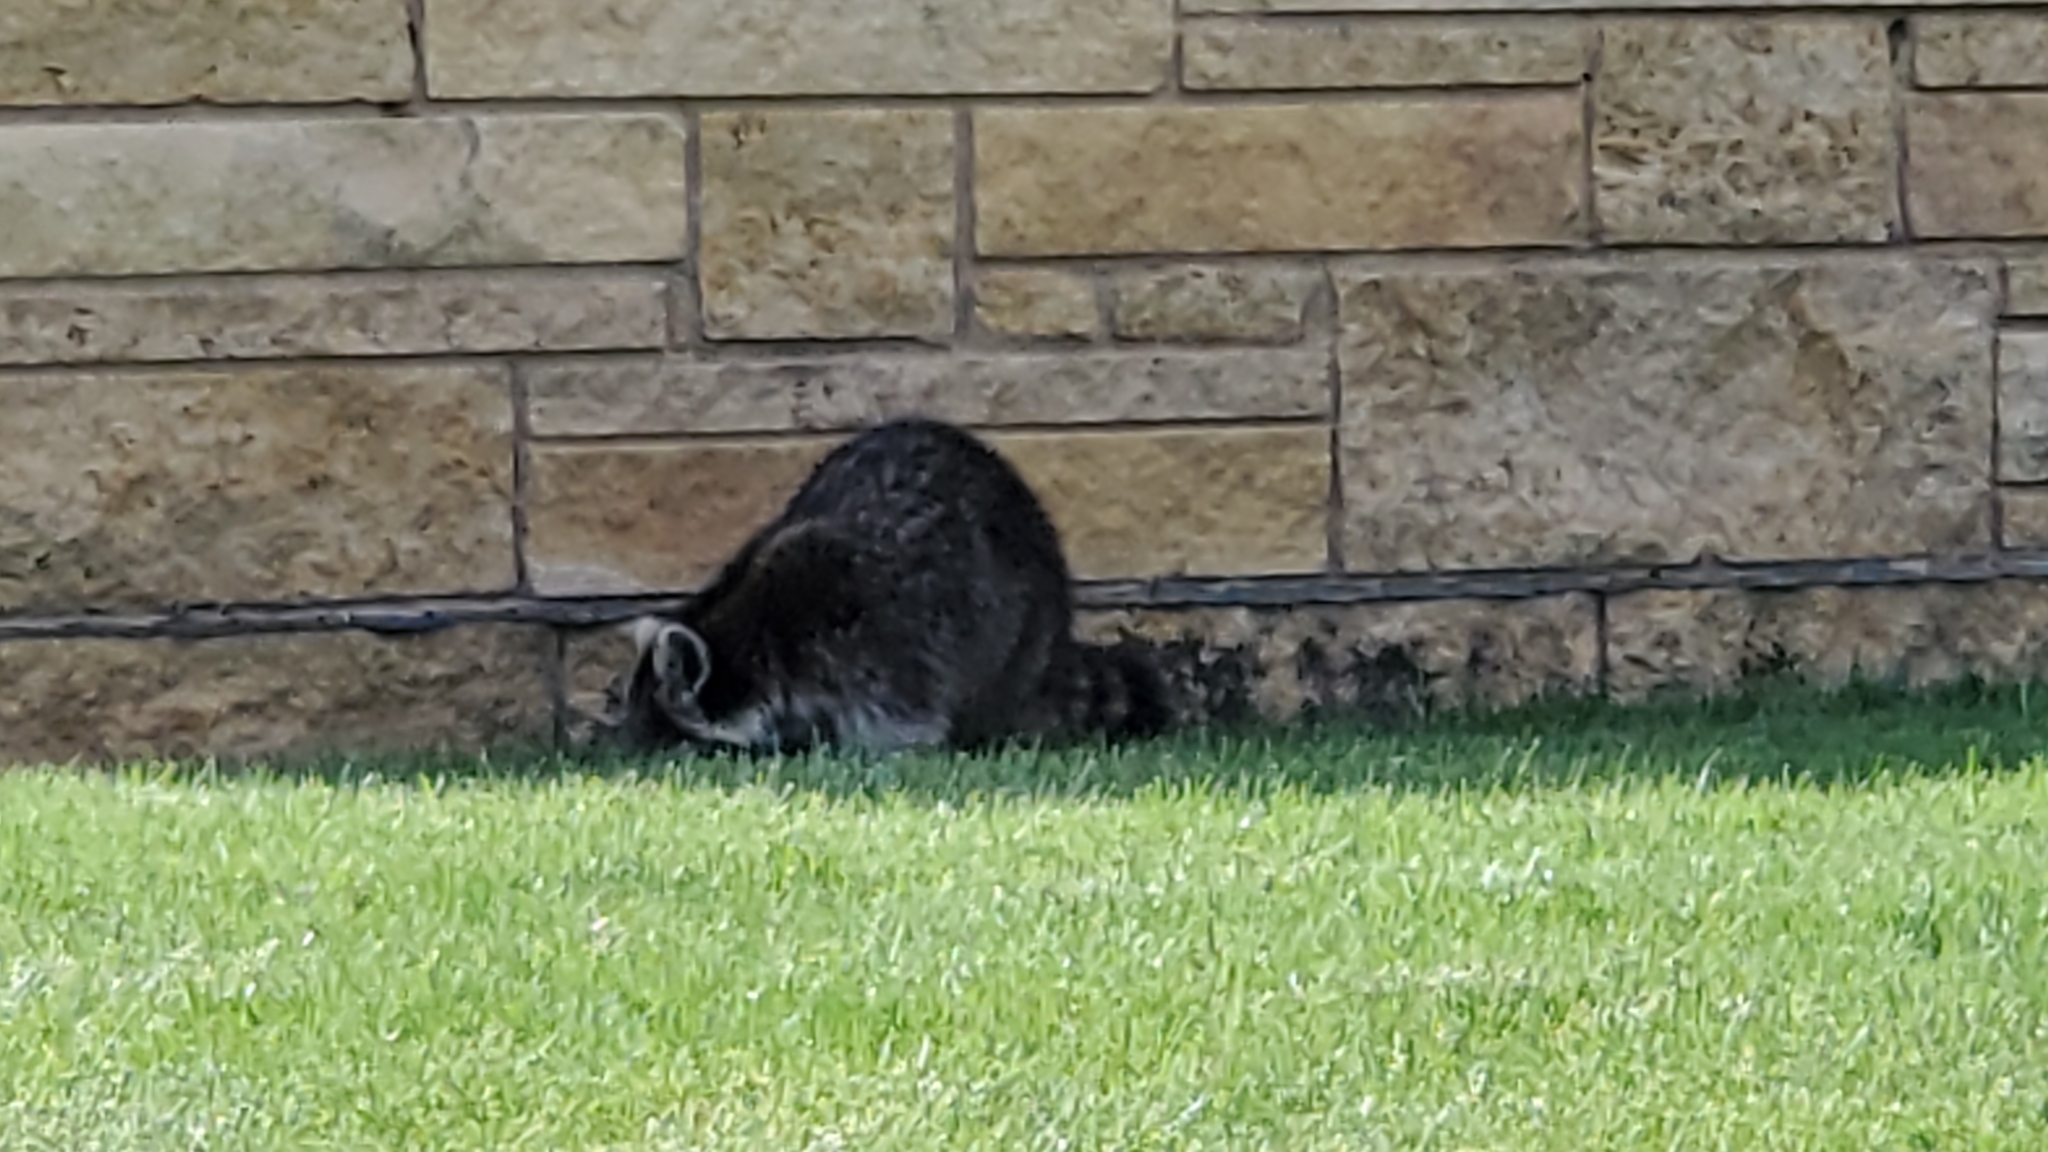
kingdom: Animalia
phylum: Chordata
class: Mammalia
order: Carnivora
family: Procyonidae
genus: Procyon
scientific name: Procyon lotor
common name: Raccoon
